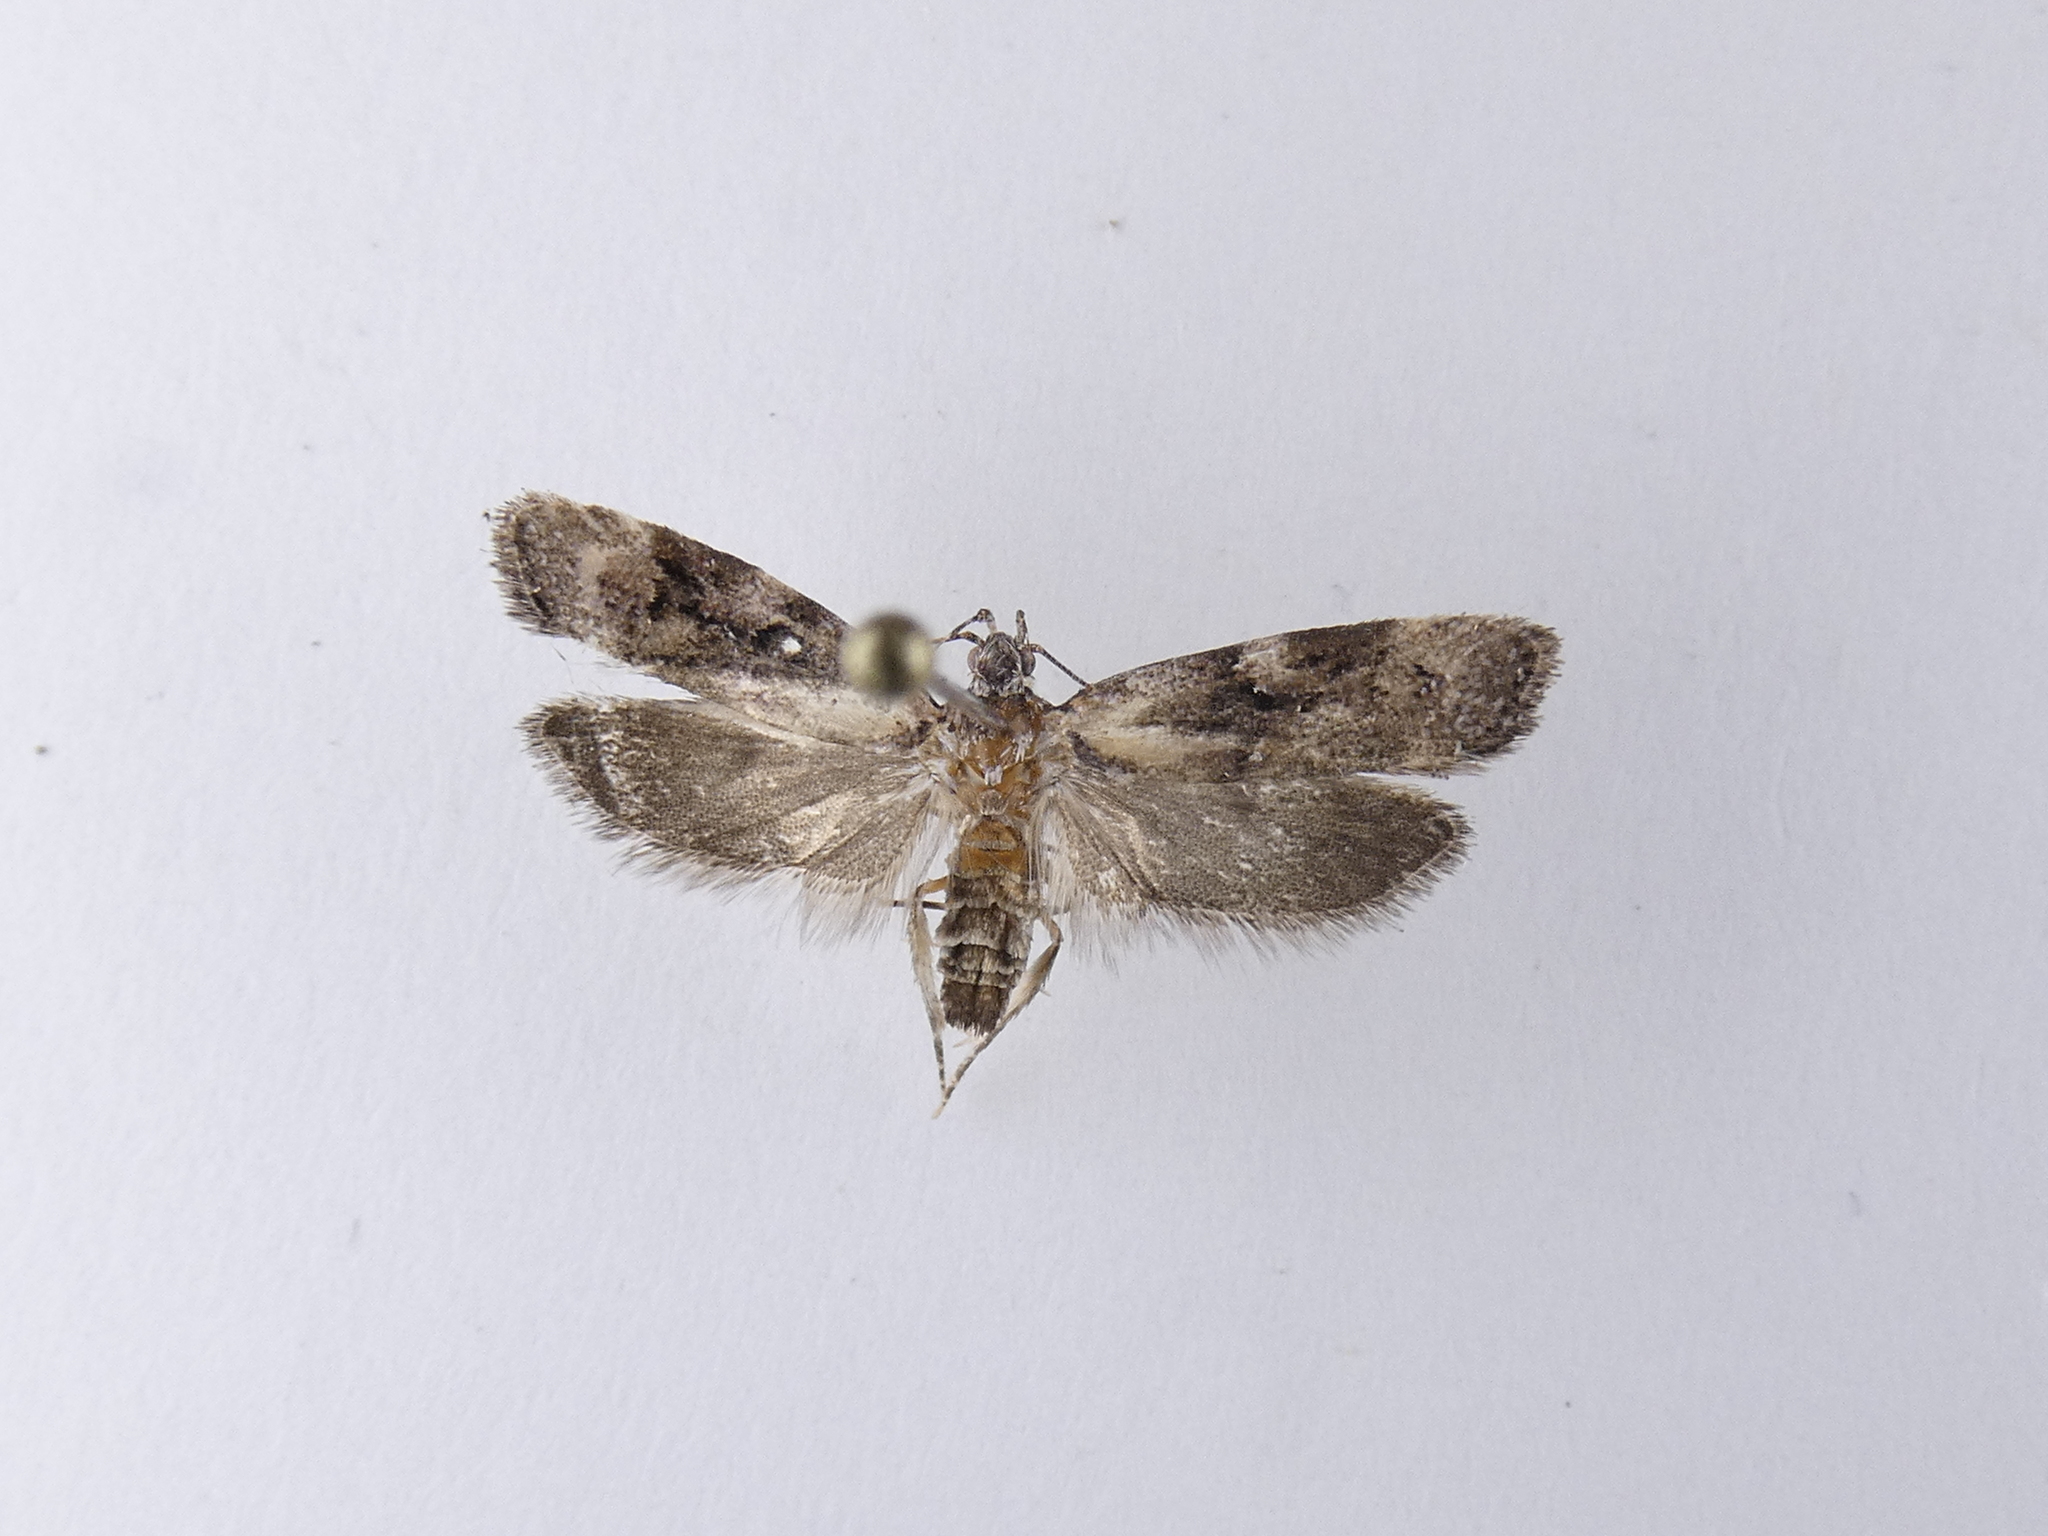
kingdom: Animalia
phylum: Arthropoda
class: Insecta
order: Lepidoptera
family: Oecophoridae
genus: Izatha
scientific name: Izatha metadelta
